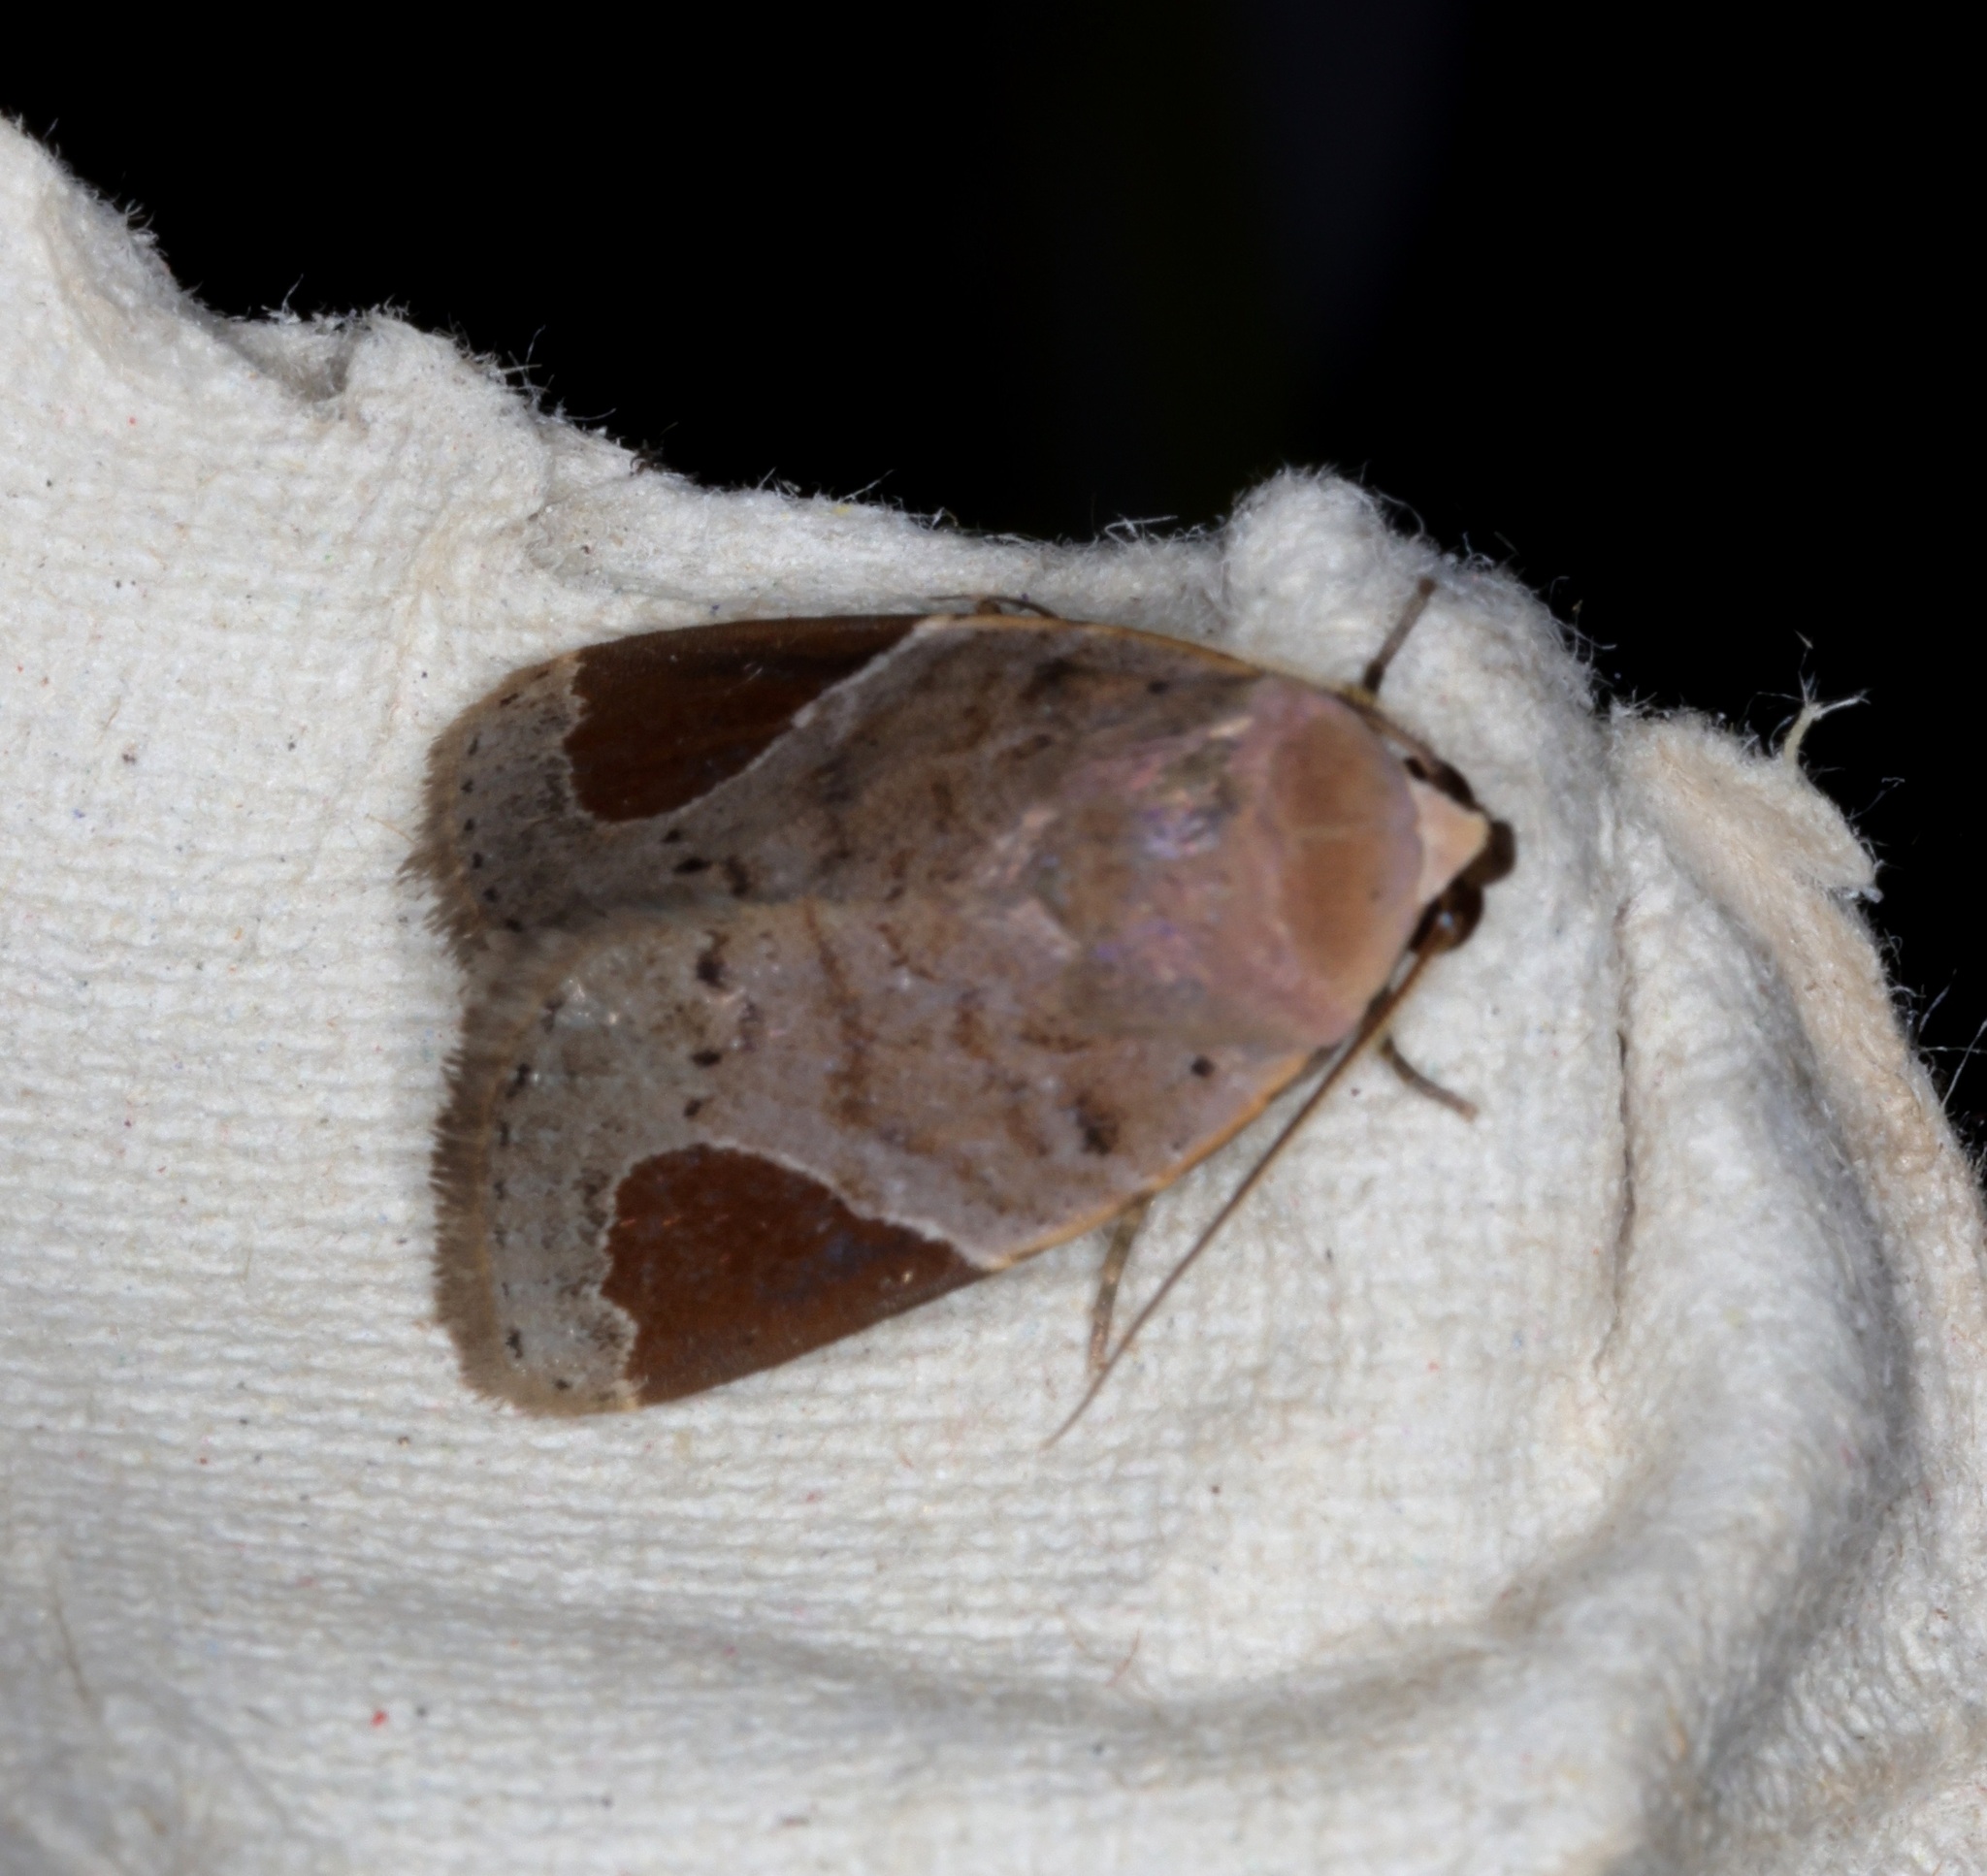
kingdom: Animalia
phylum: Arthropoda
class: Insecta
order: Lepidoptera
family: Noctuidae
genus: Dyrzela
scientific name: Dyrzela plagiata
